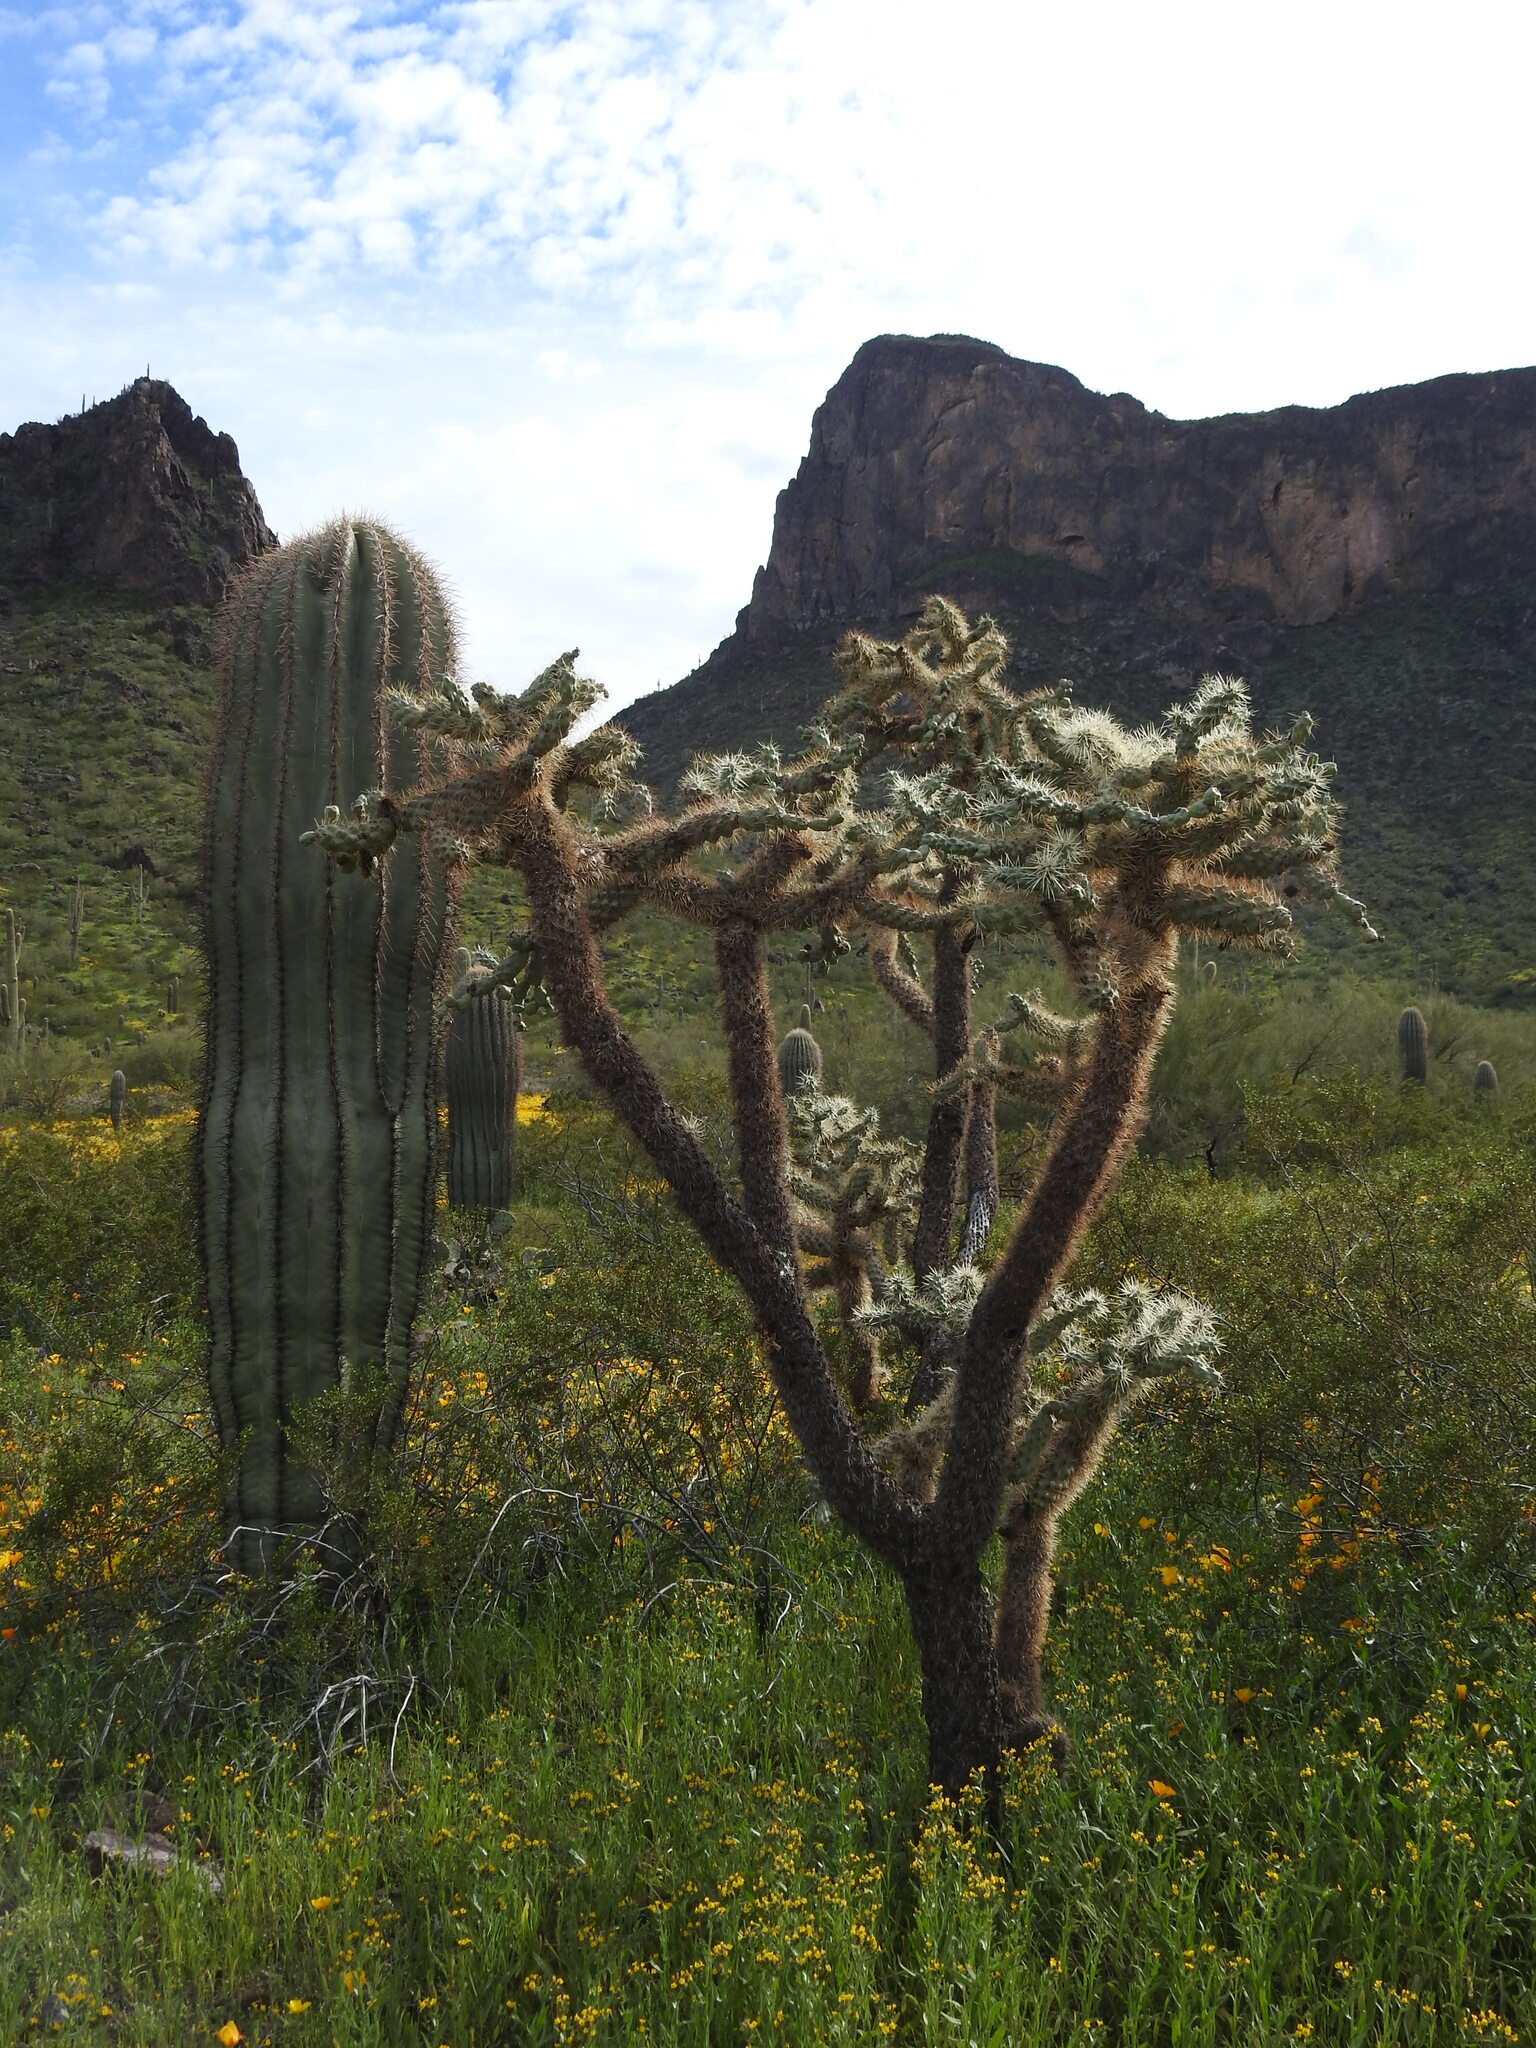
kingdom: Plantae
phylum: Tracheophyta
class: Magnoliopsida
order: Caryophyllales
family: Cactaceae
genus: Carnegiea
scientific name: Carnegiea gigantea
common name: Saguaro
